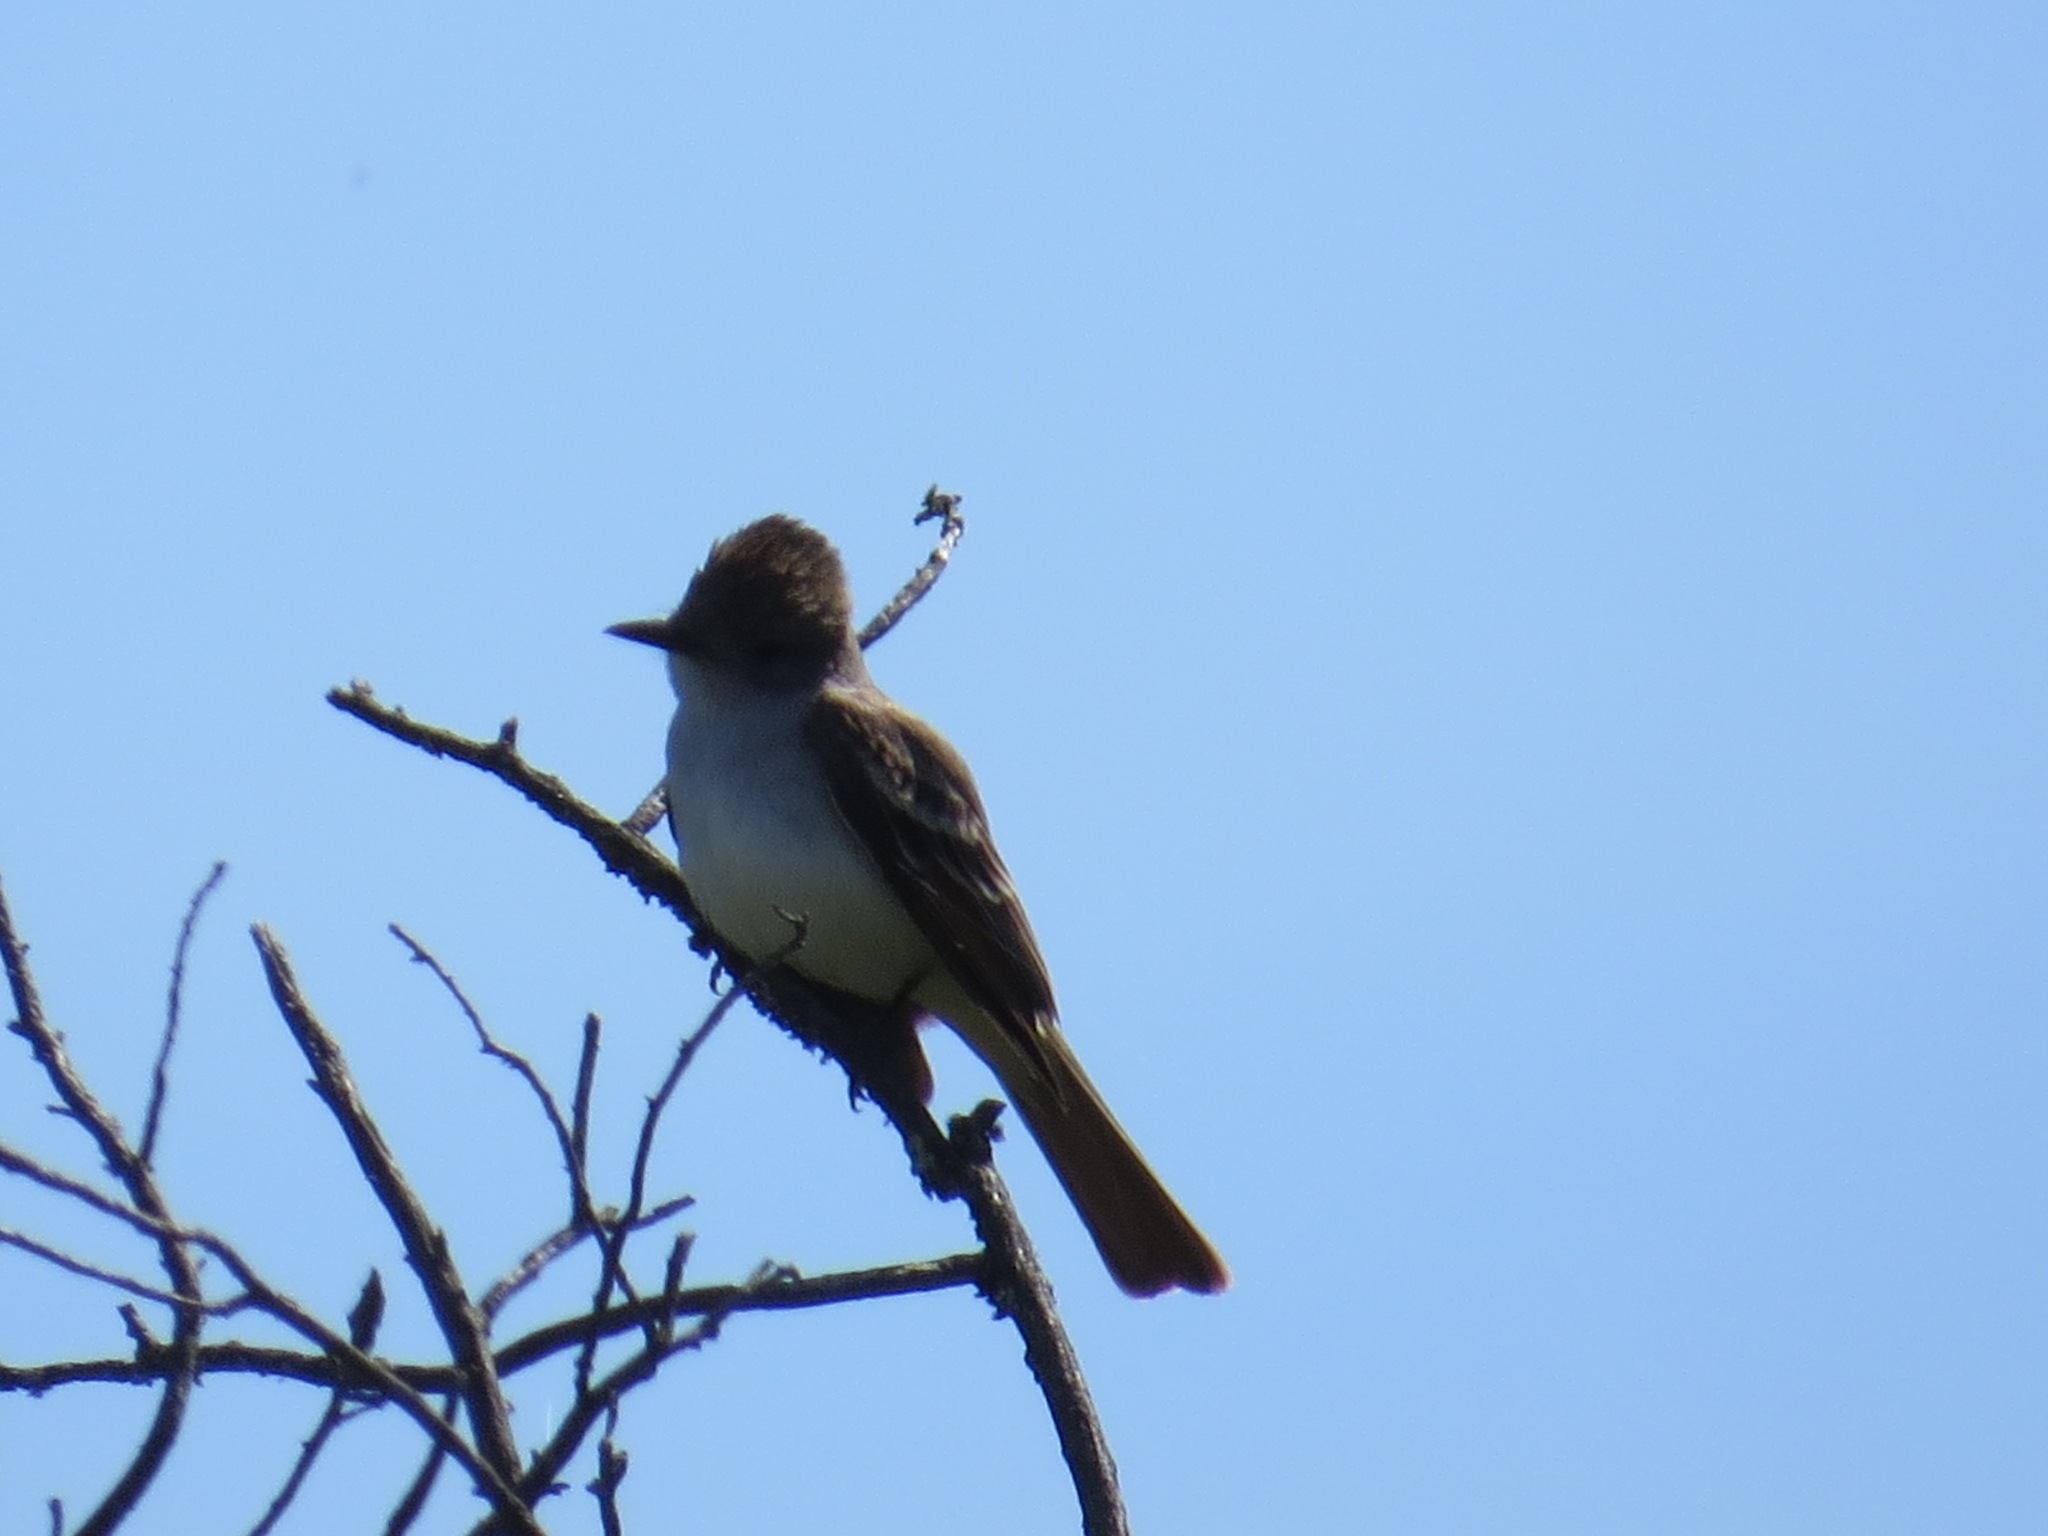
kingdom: Animalia
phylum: Chordata
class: Aves
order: Passeriformes
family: Tyrannidae
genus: Myiarchus
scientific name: Myiarchus cinerascens
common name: Ash-throated flycatcher
